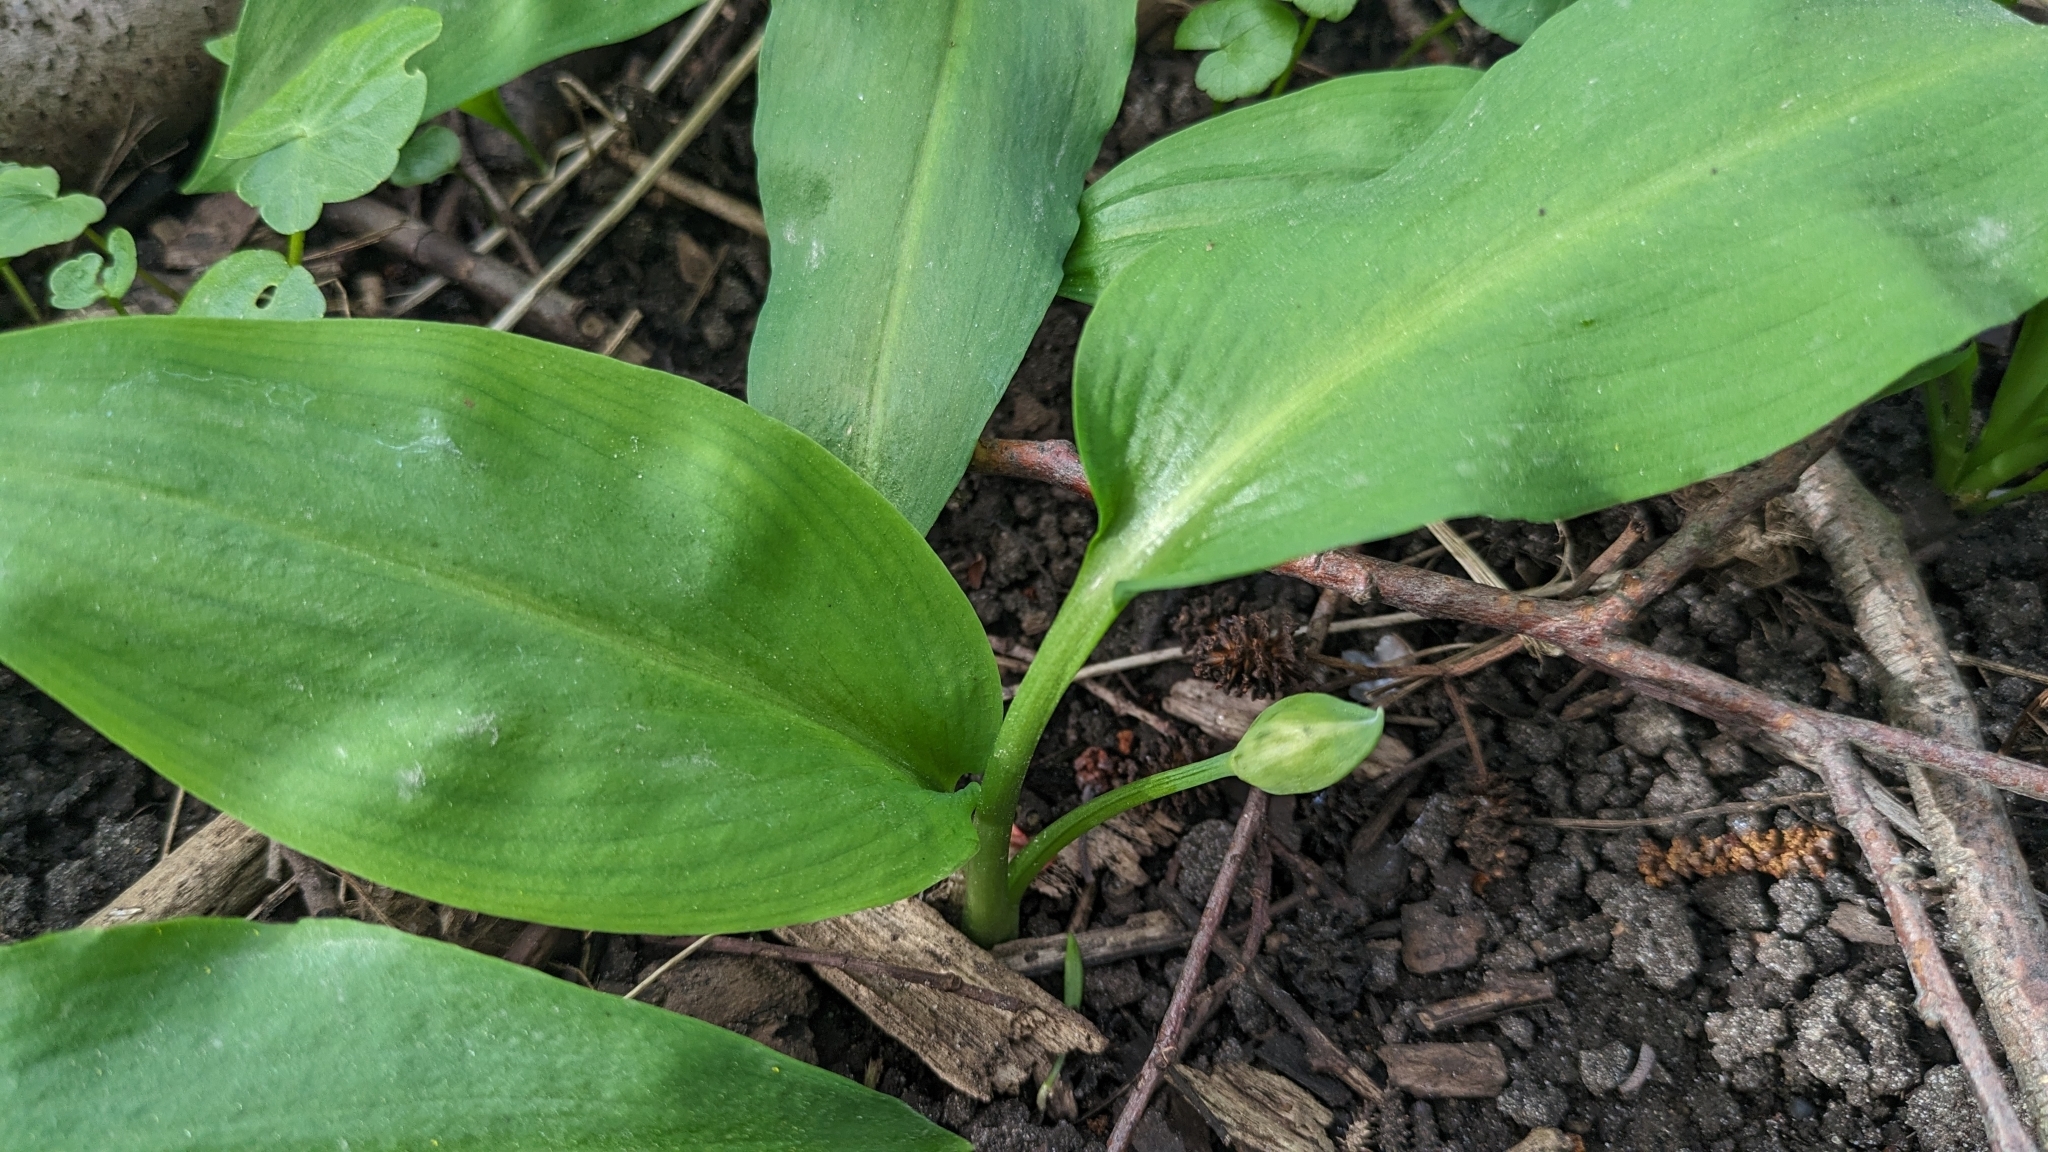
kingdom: Plantae
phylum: Tracheophyta
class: Liliopsida
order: Asparagales
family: Amaryllidaceae
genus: Allium
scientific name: Allium ursinum
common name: Ramsons
